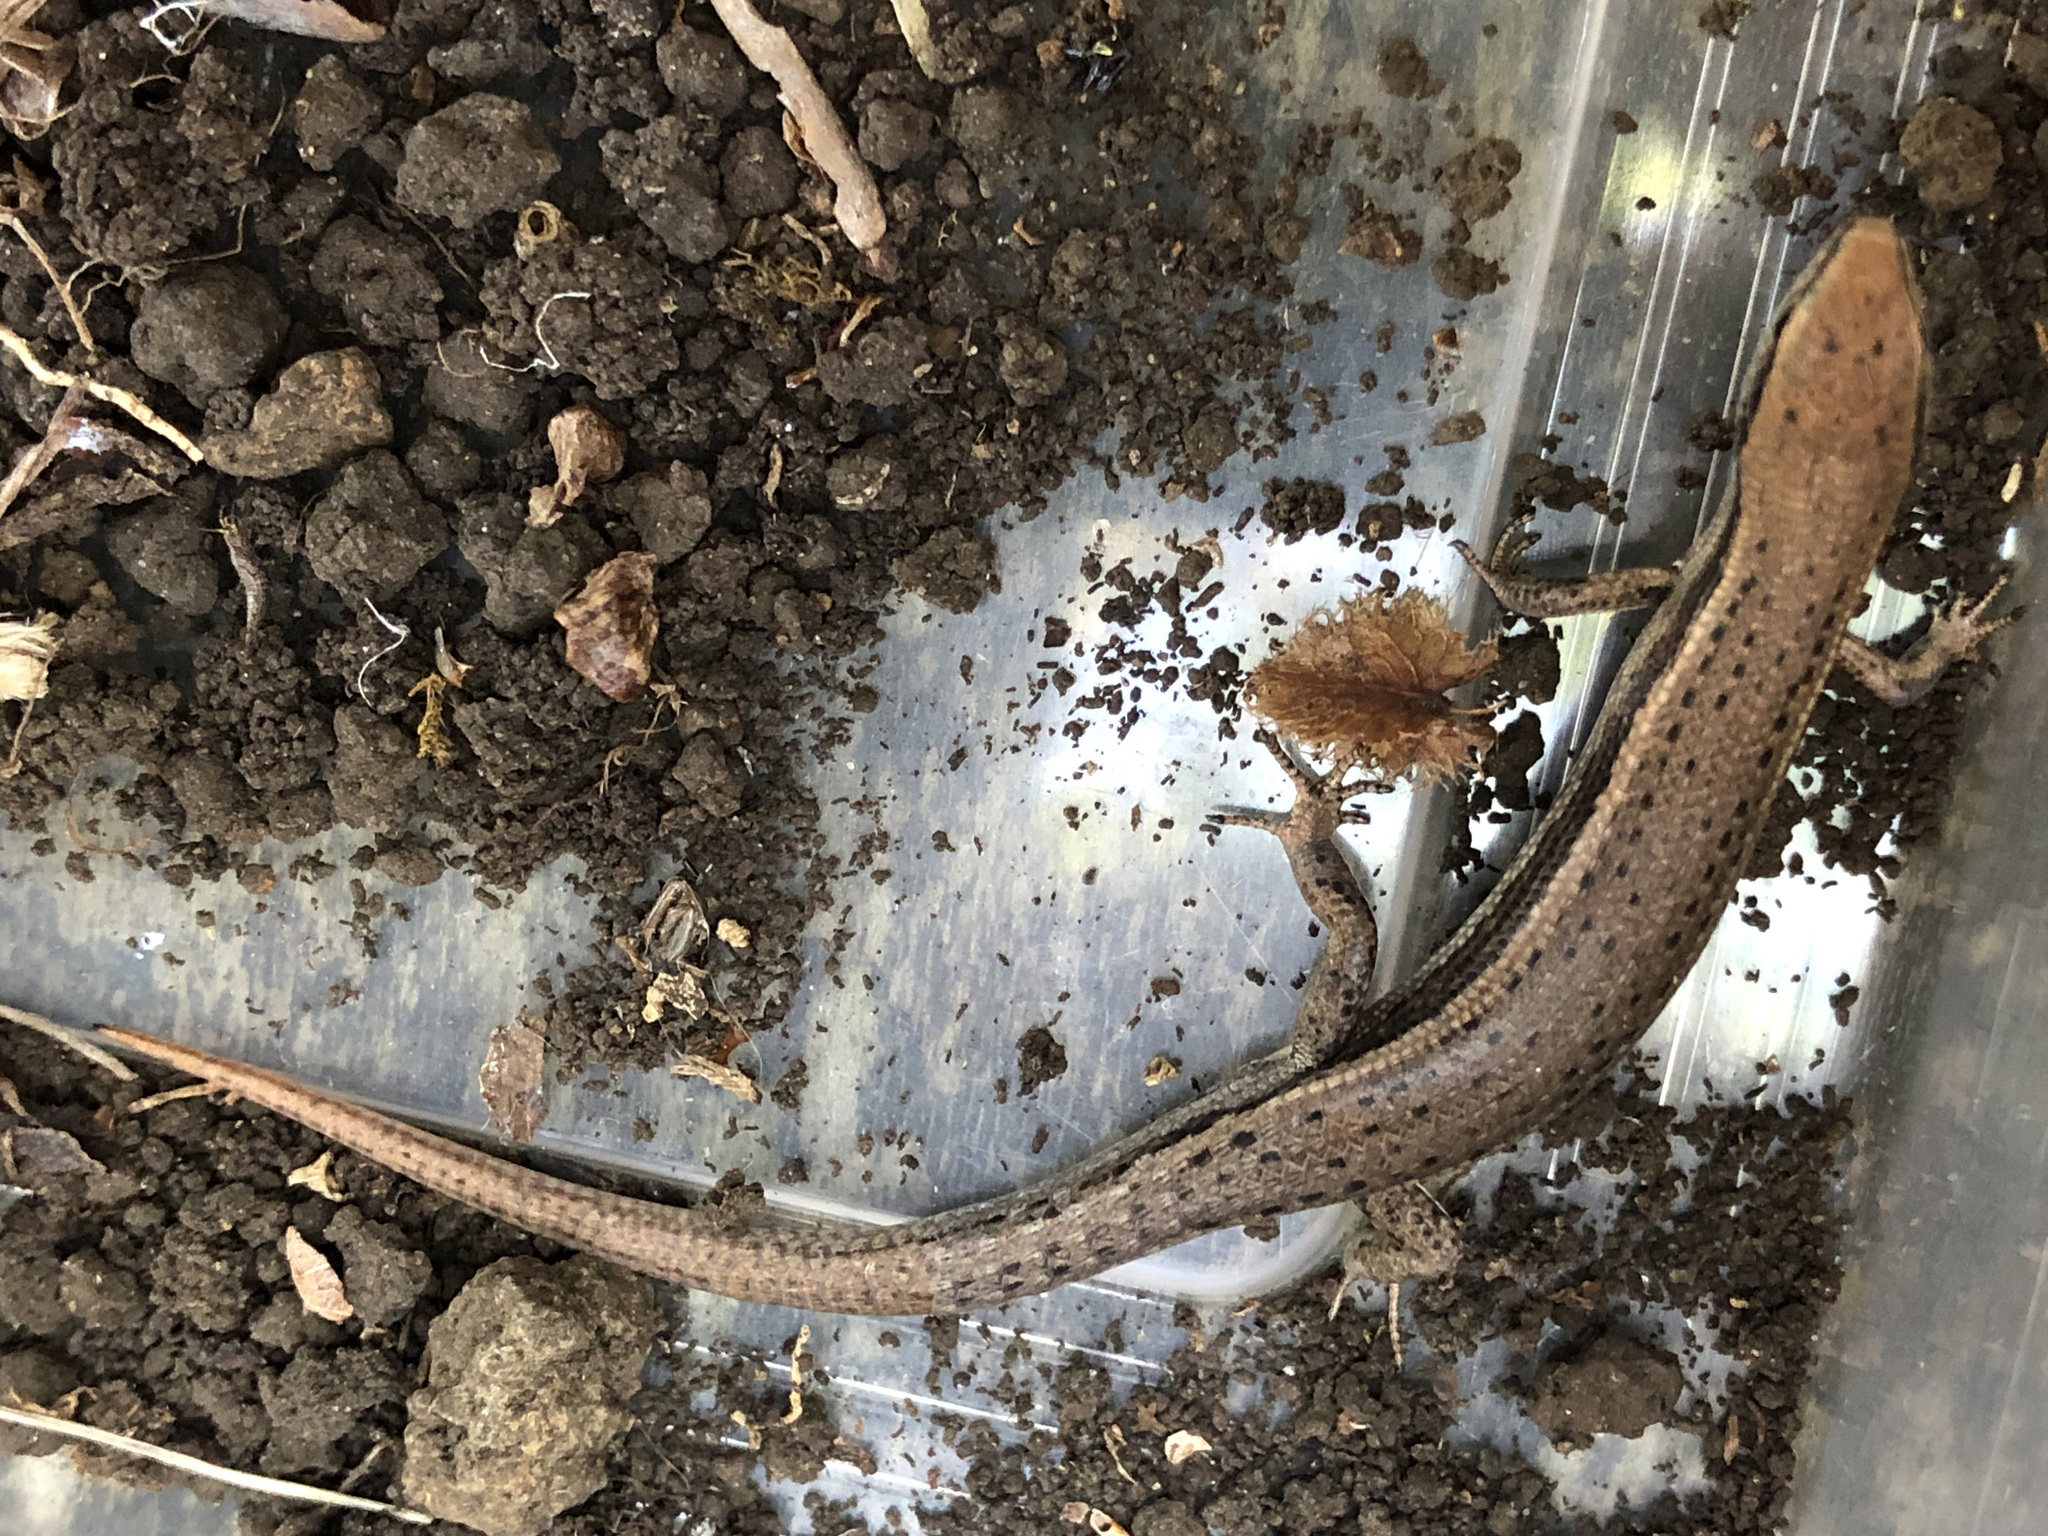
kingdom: Animalia
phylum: Chordata
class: Squamata
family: Scincidae
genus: Lampropholis
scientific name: Lampropholis delicata
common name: Plague skink
